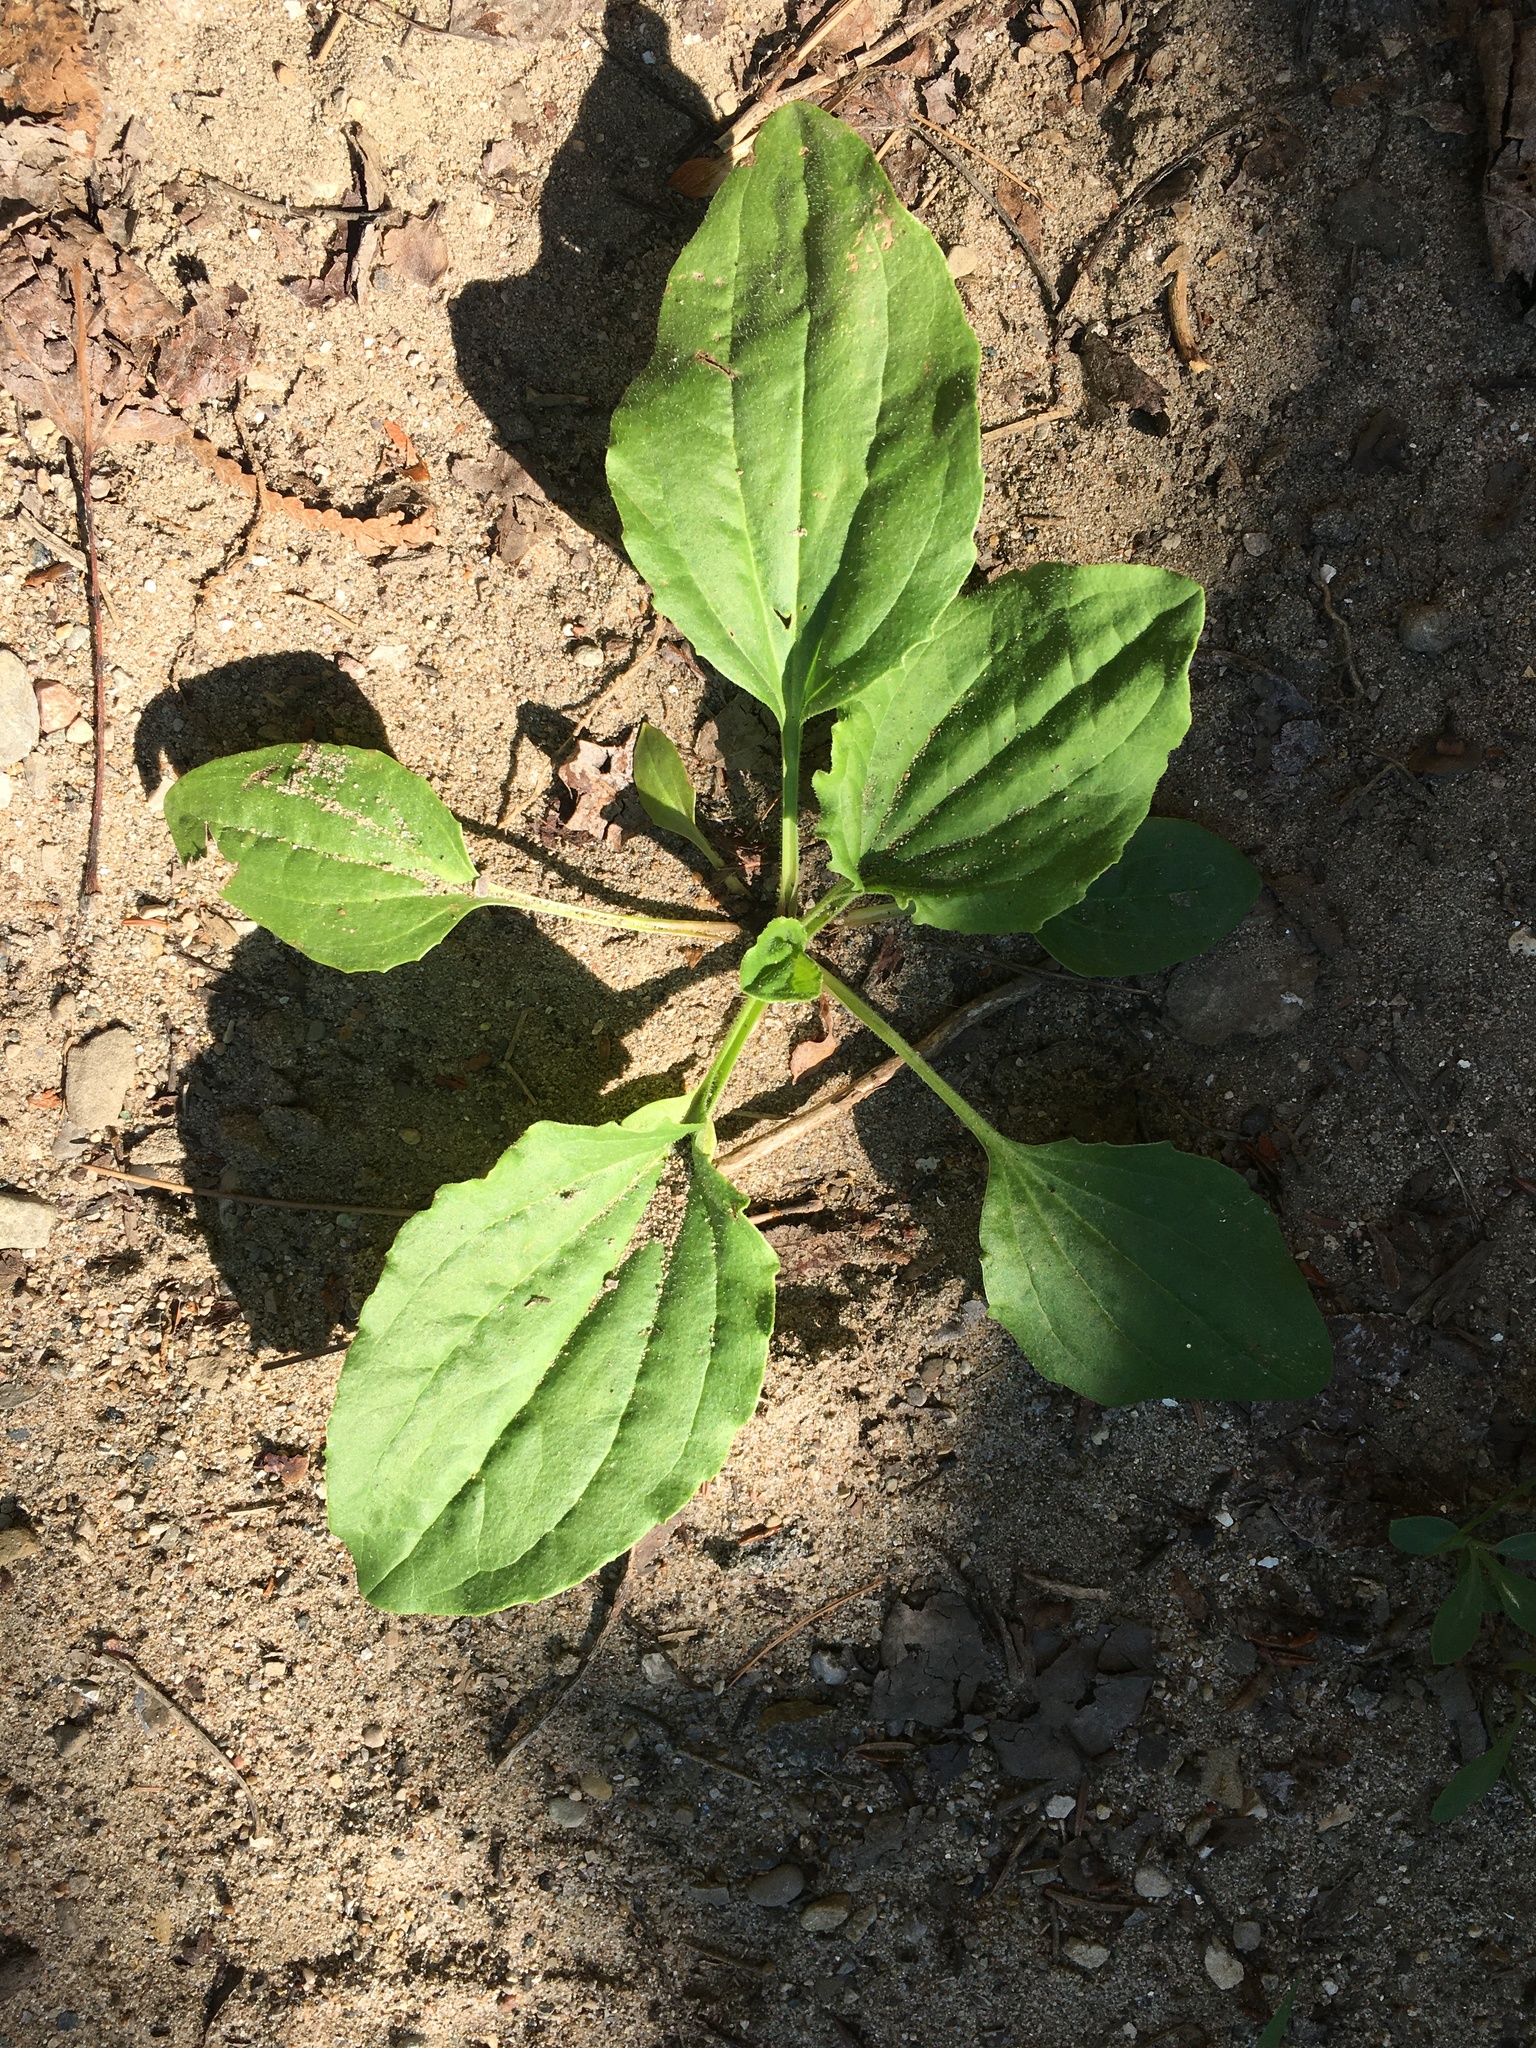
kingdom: Plantae
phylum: Tracheophyta
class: Magnoliopsida
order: Lamiales
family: Plantaginaceae
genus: Plantago
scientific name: Plantago major
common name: Common plantain
